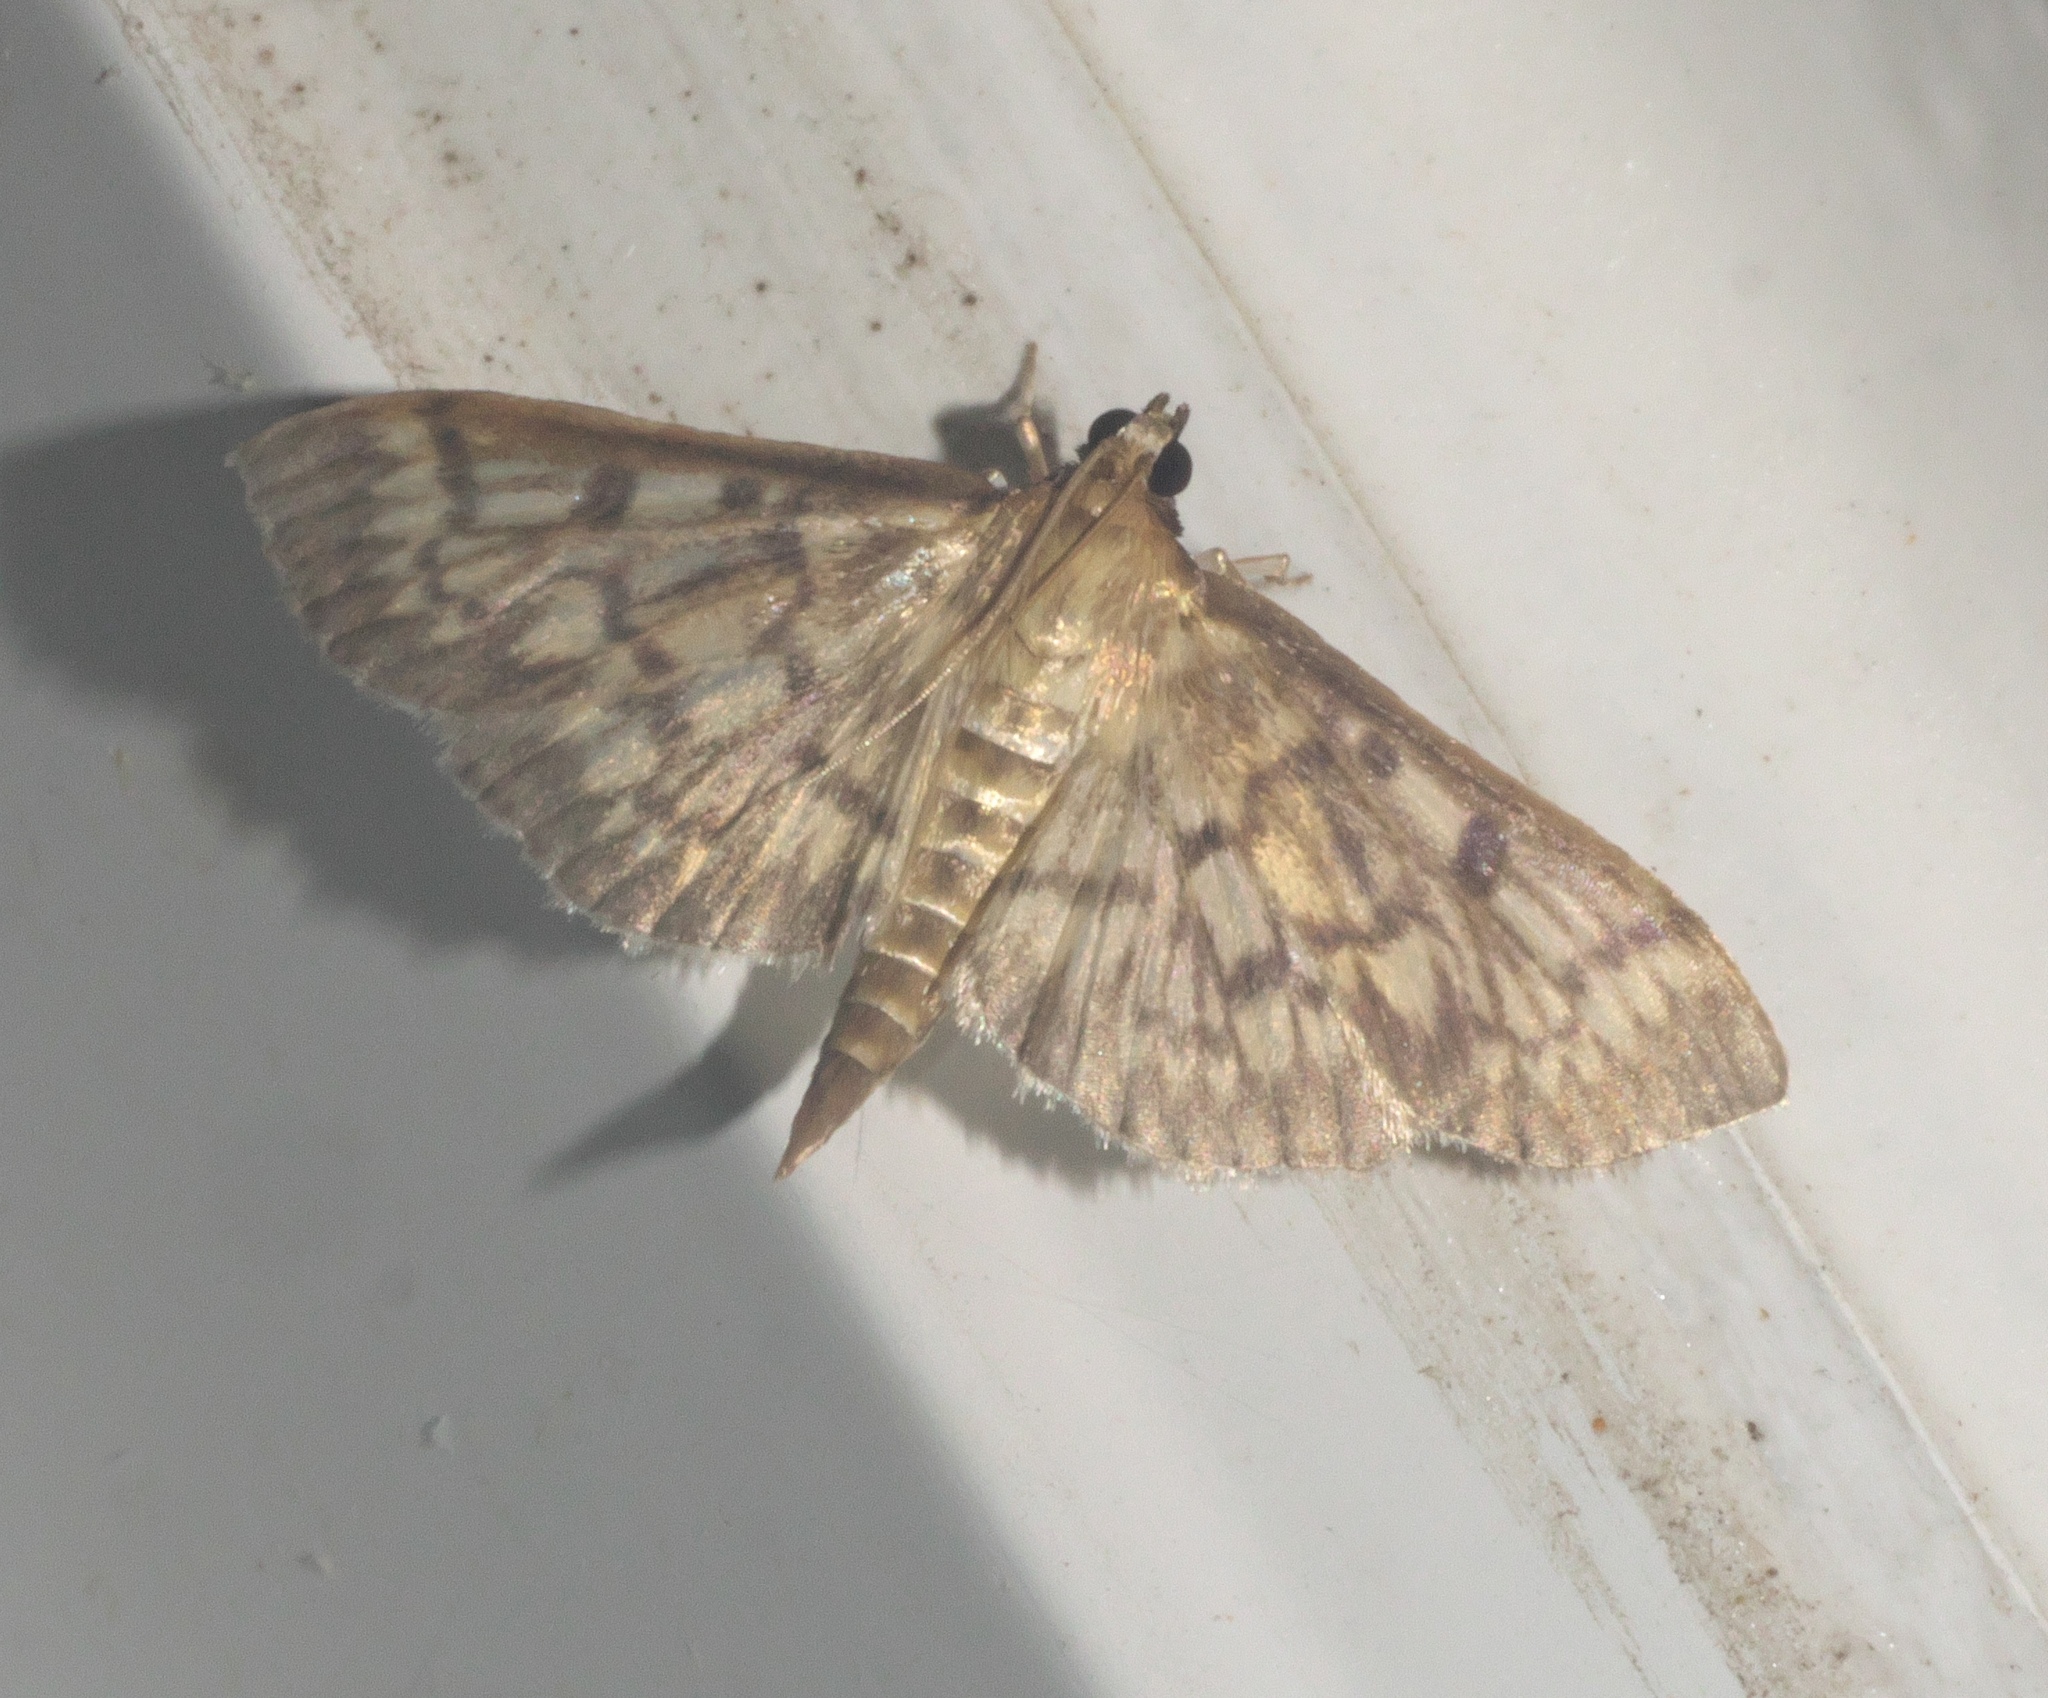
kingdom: Animalia
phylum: Arthropoda
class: Insecta
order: Lepidoptera
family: Crambidae
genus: Herpetogramma
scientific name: Herpetogramma pertextalis
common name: Bold-feathered grass moth
